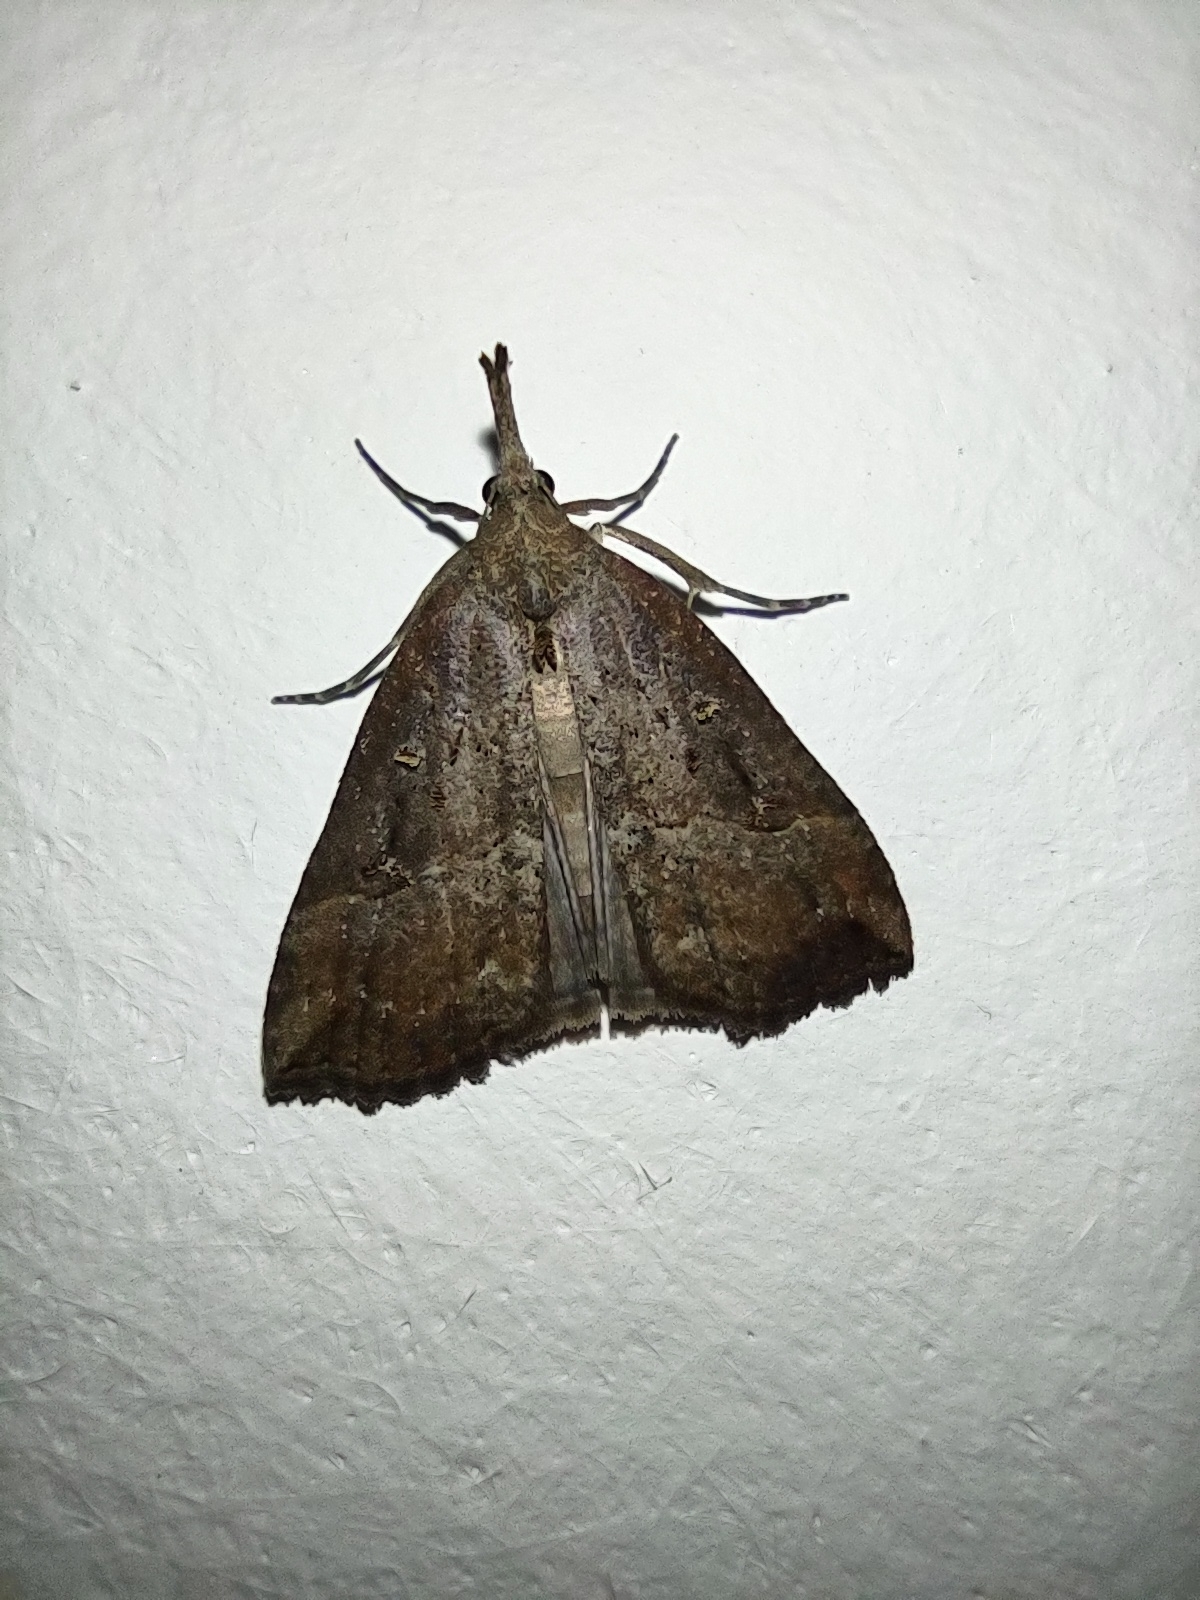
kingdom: Animalia
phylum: Arthropoda
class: Insecta
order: Lepidoptera
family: Erebidae
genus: Hypena
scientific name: Hypena rostralis
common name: Buttoned snout
